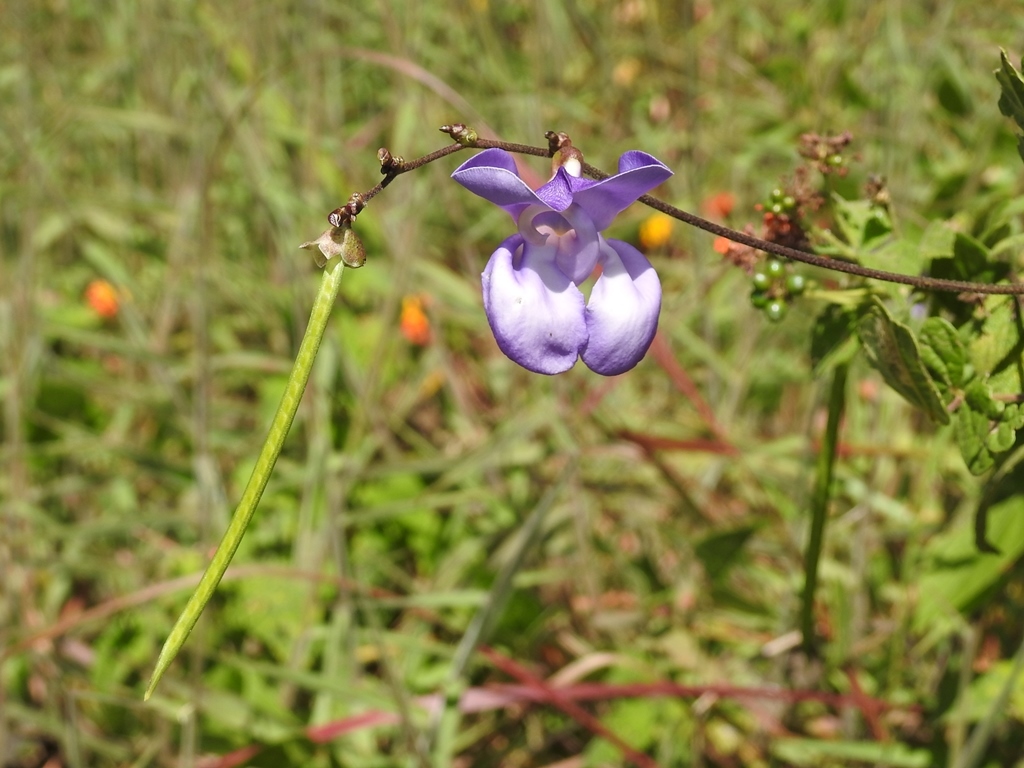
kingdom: Plantae
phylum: Tracheophyta
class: Magnoliopsida
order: Fabales
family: Fabaceae
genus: Leptospron
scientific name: Leptospron adenanthum
